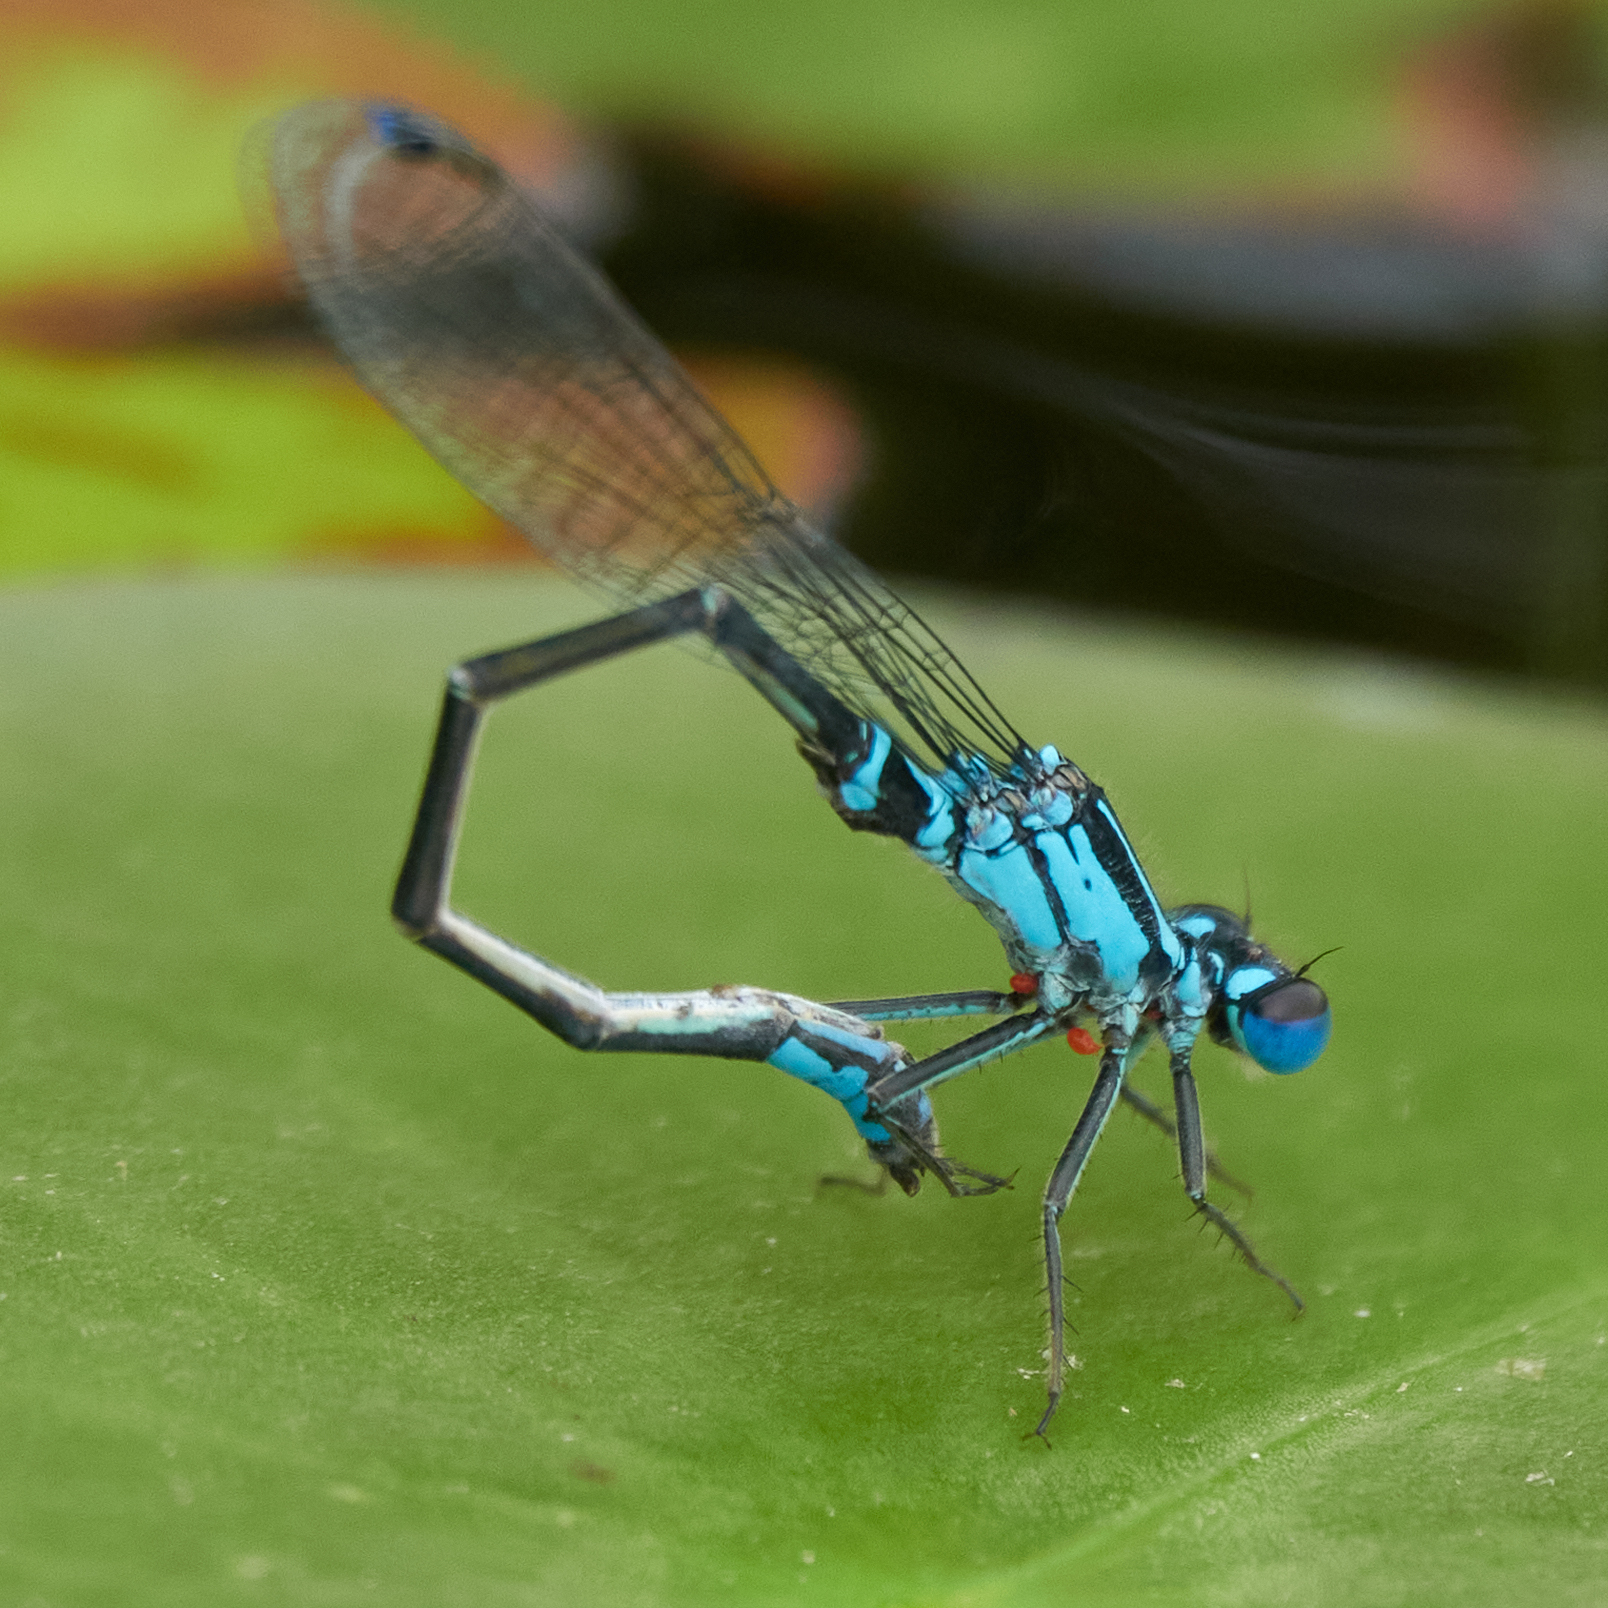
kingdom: Animalia
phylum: Arthropoda
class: Insecta
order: Odonata
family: Coenagrionidae
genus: Ischnura
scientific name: Ischnura kellicotti
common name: Lilypad forktail
